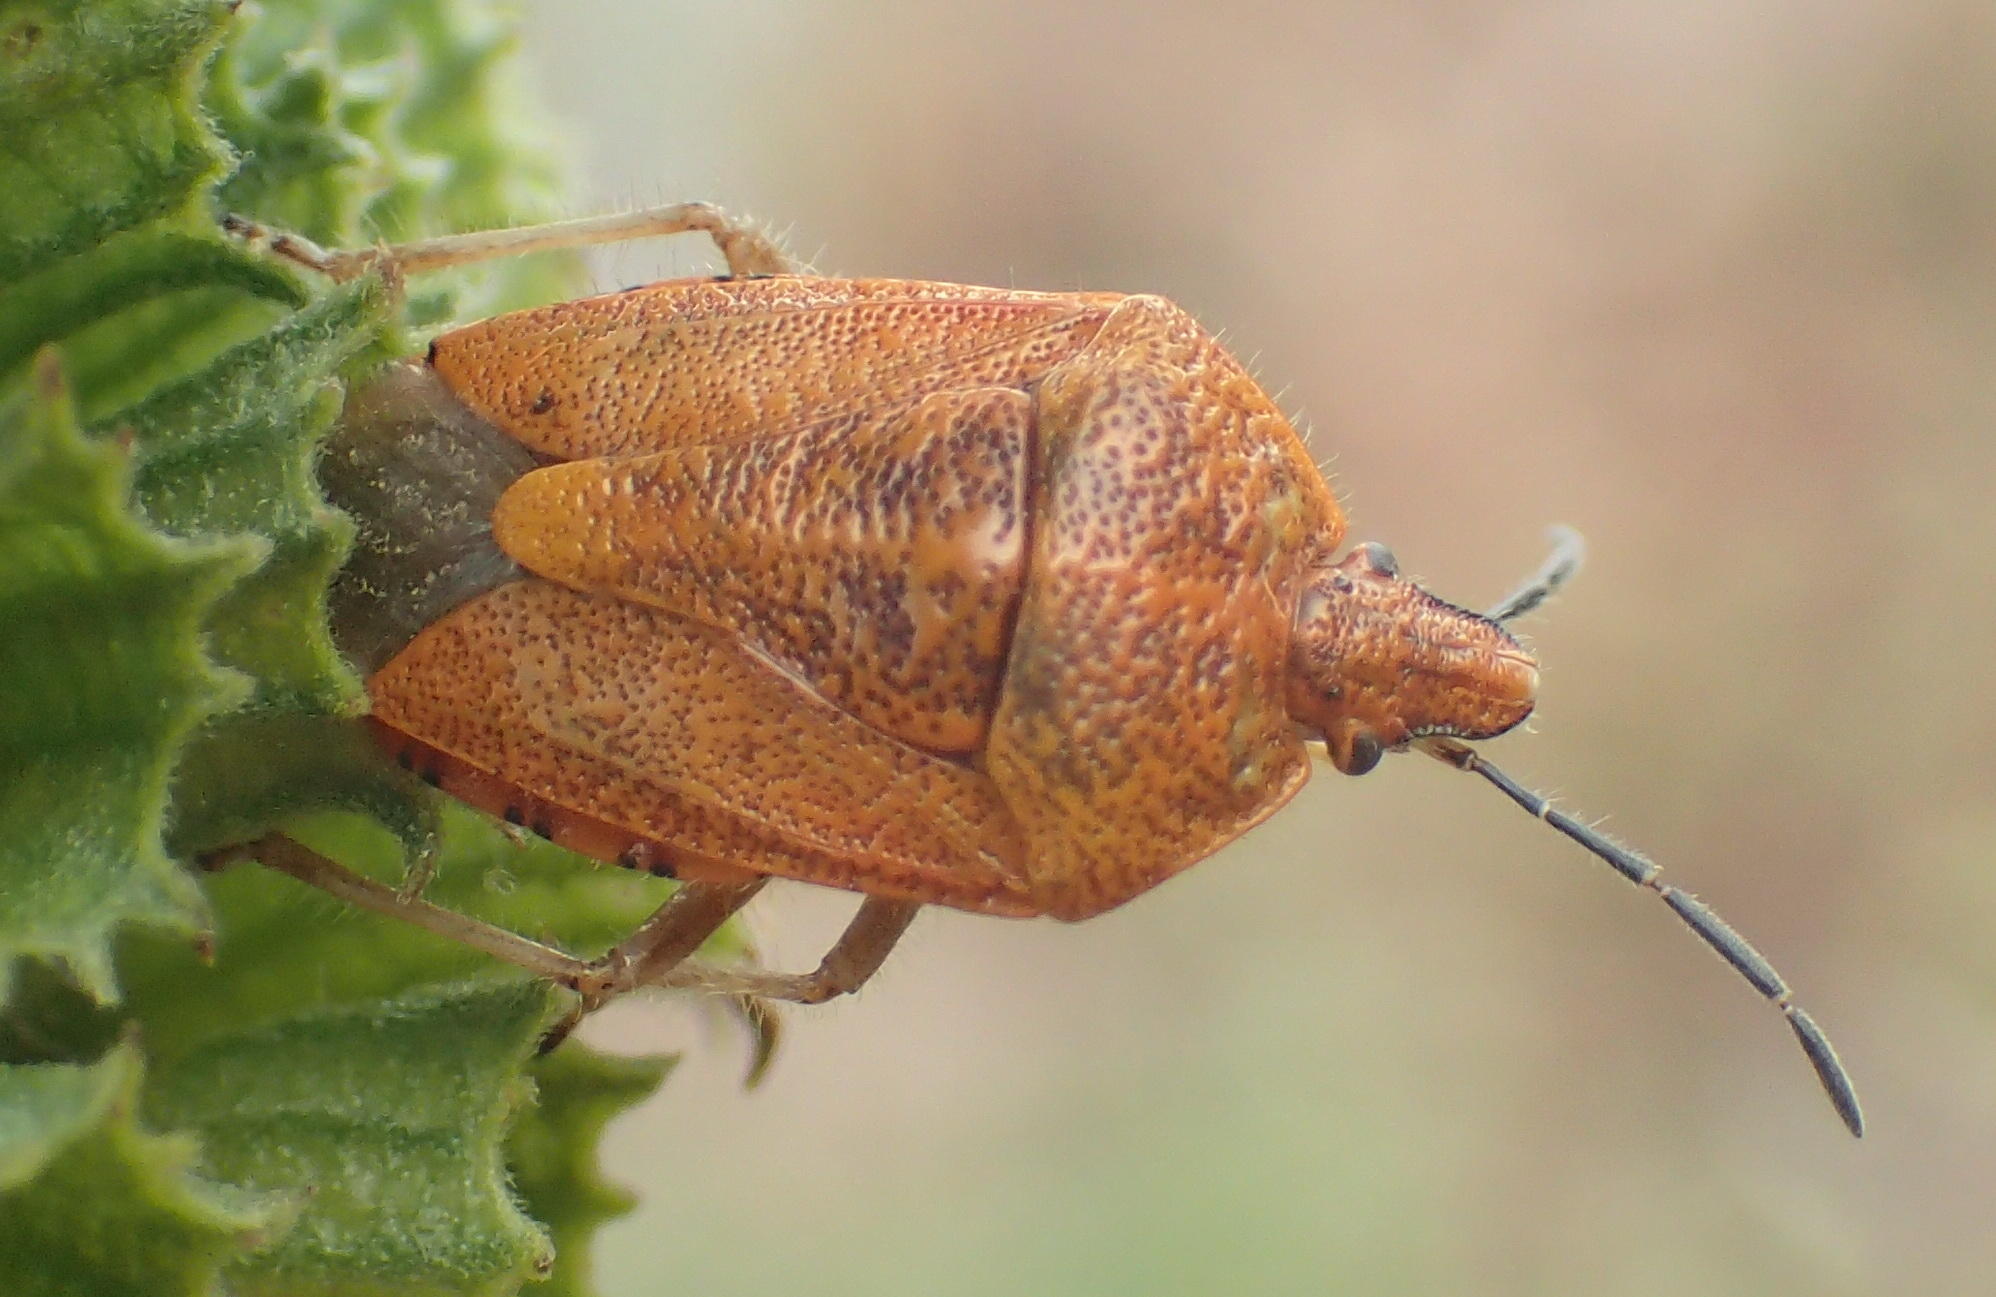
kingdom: Animalia
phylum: Arthropoda
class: Insecta
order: Hemiptera
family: Pentatomidae
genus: Agonoscelis
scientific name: Agonoscelis
